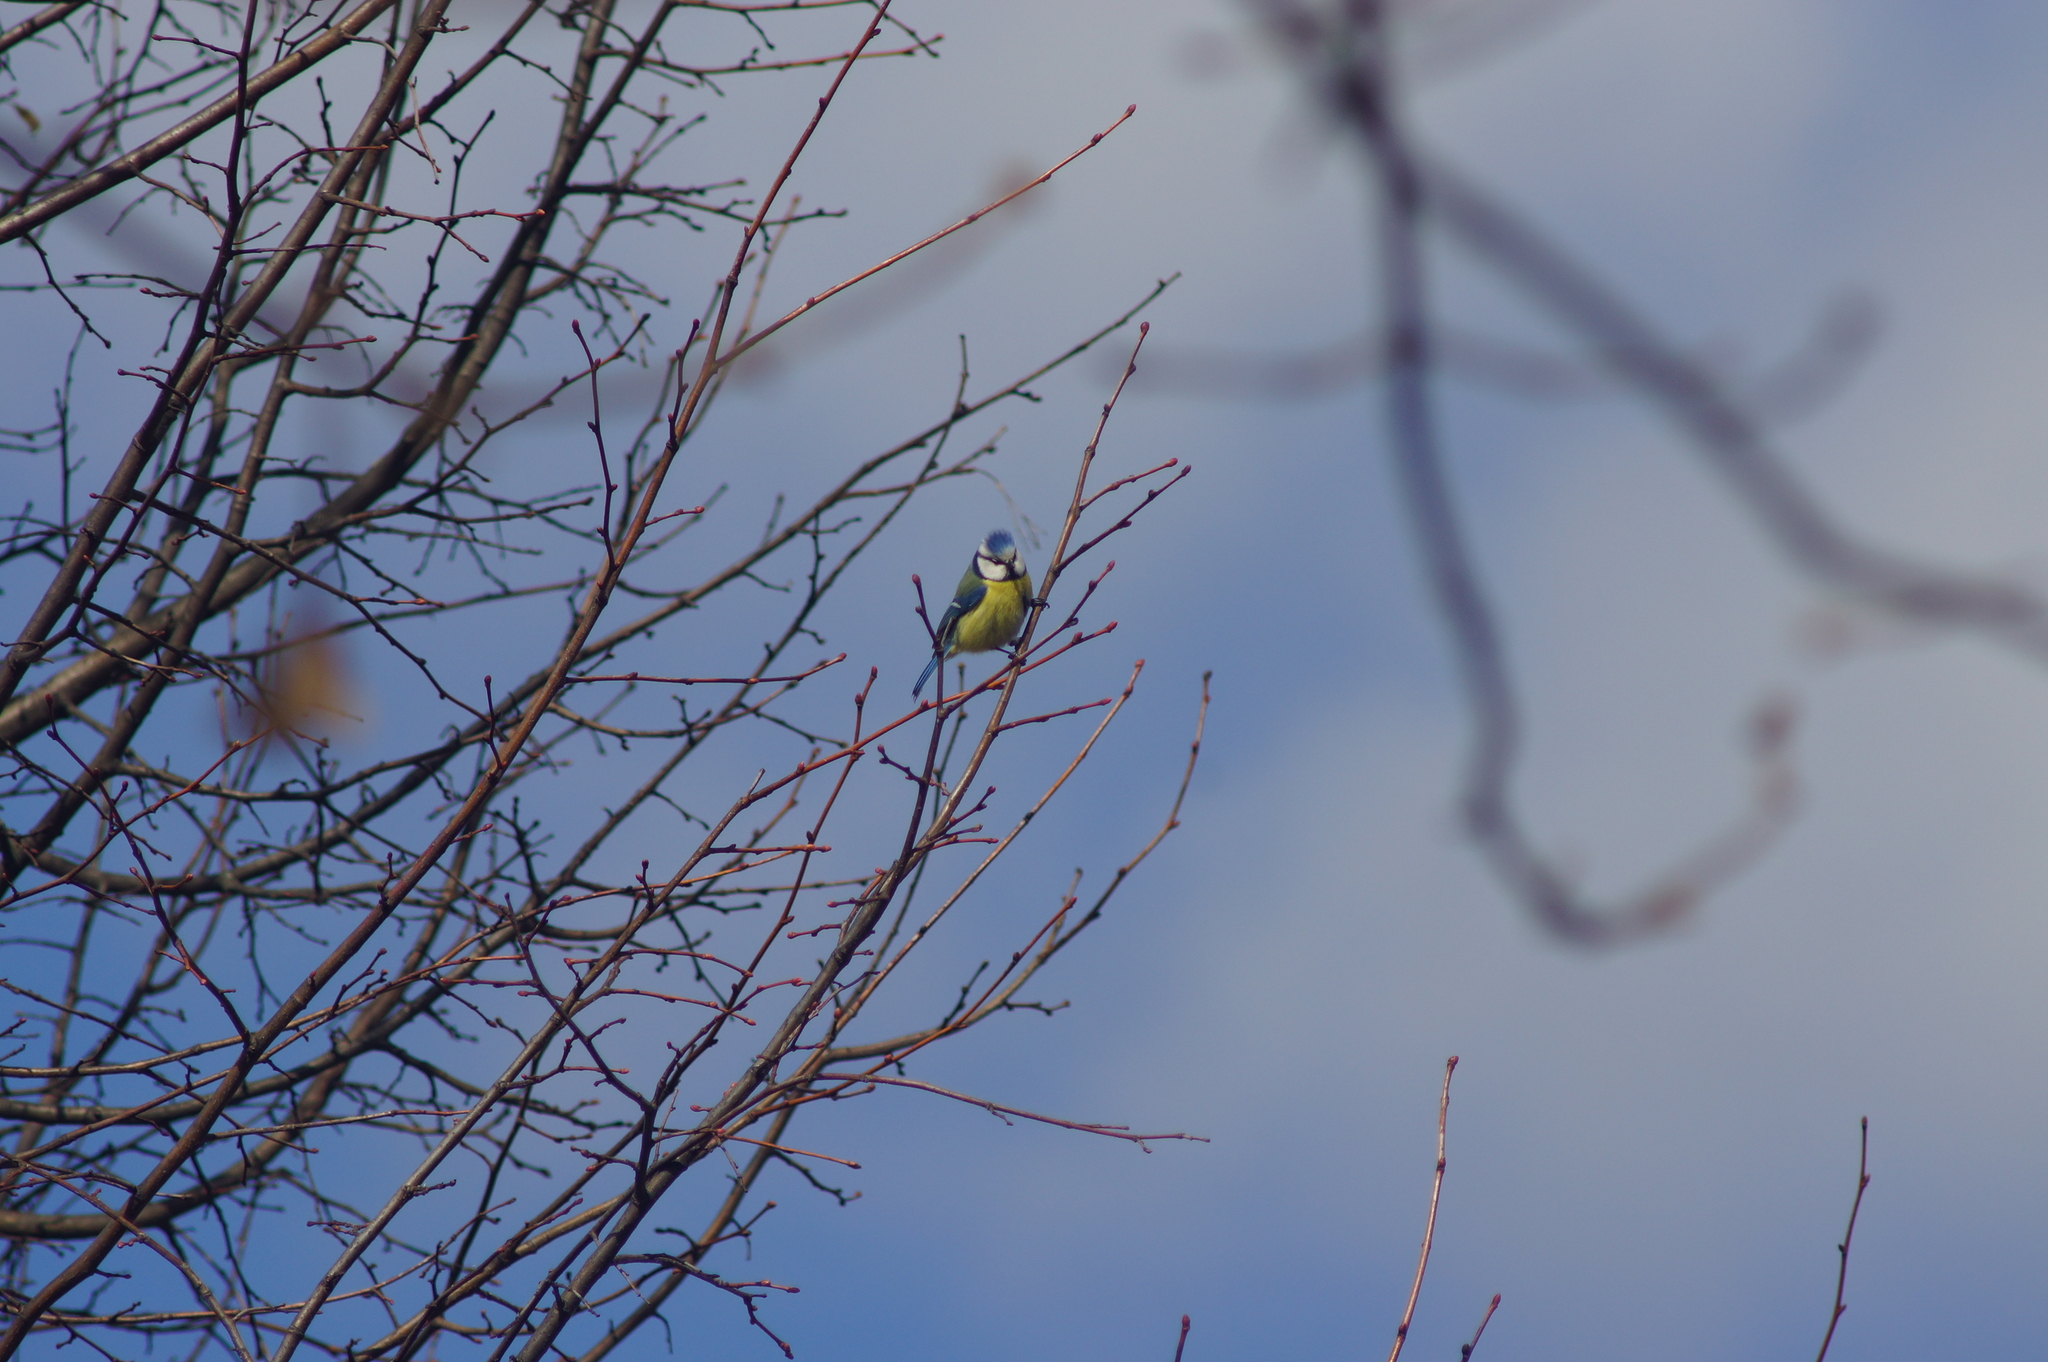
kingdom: Animalia
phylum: Chordata
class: Aves
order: Passeriformes
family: Paridae
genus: Cyanistes
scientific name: Cyanistes caeruleus
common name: Eurasian blue tit
